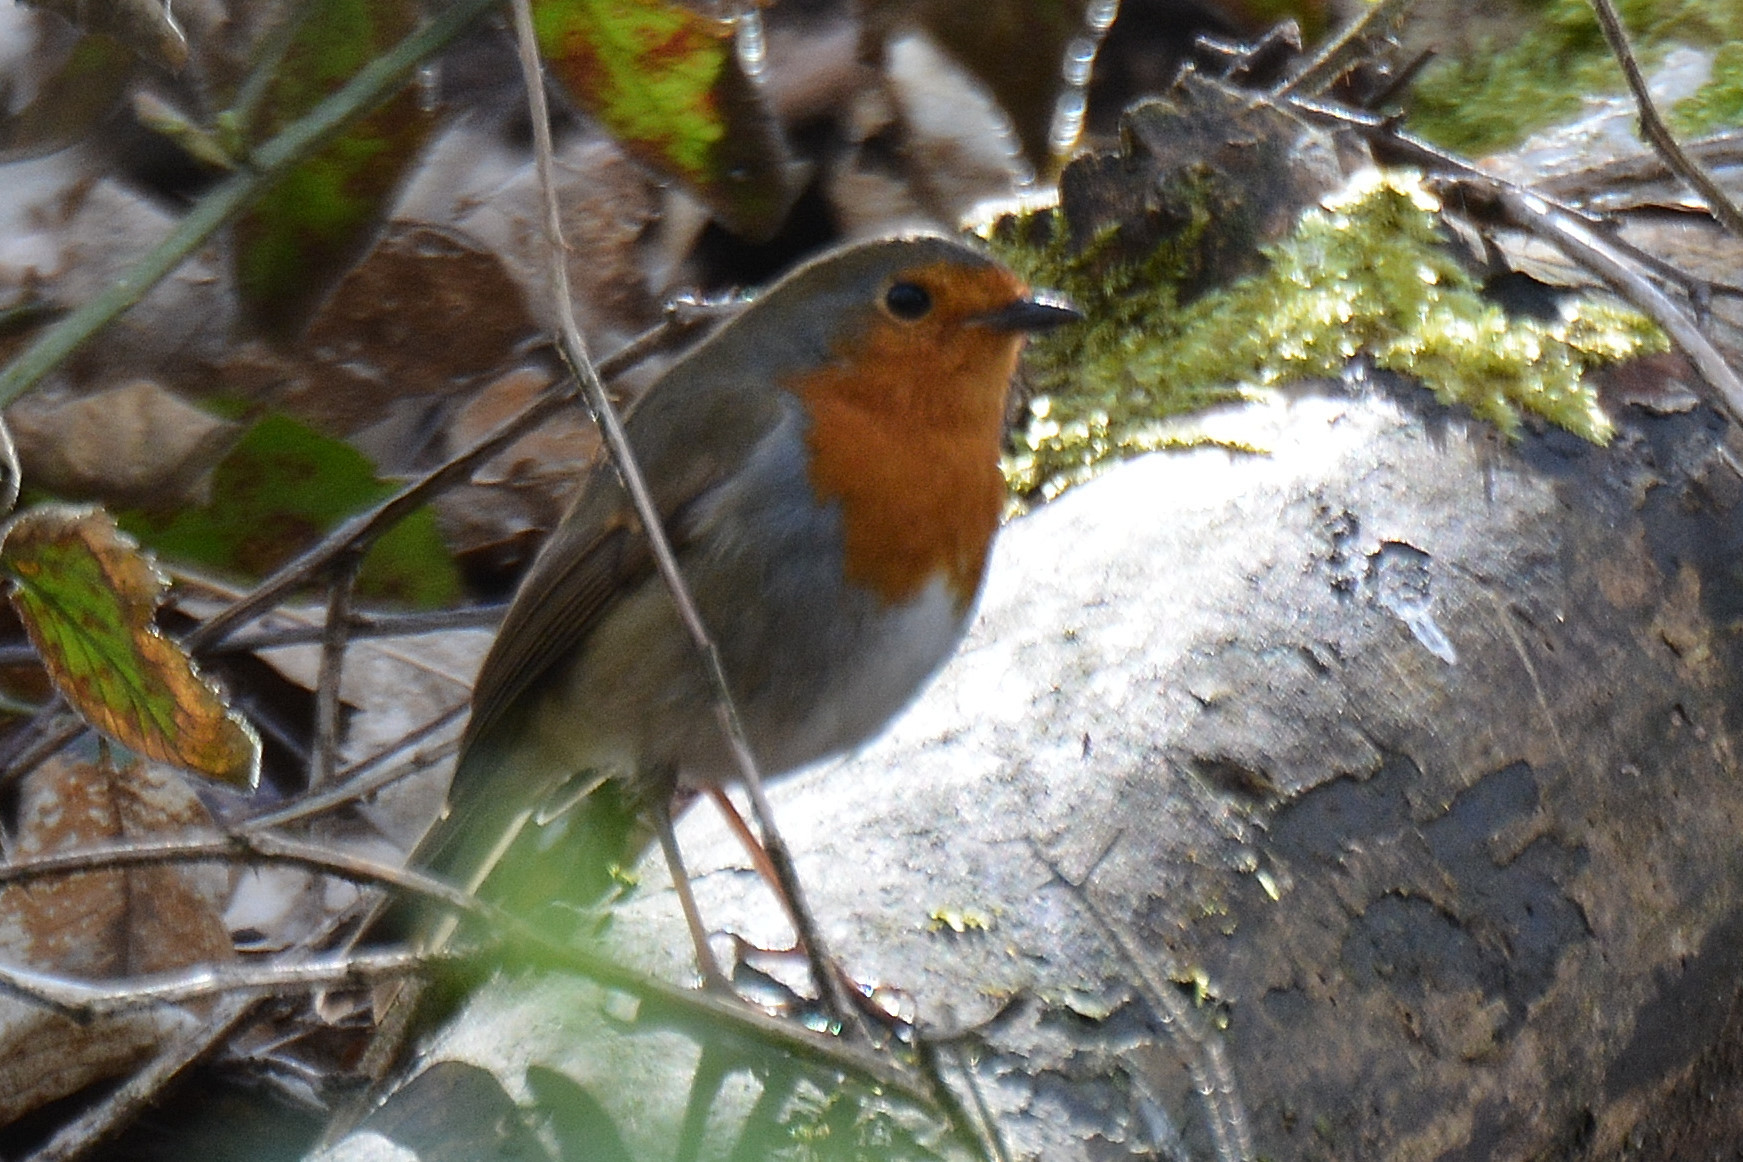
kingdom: Animalia
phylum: Chordata
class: Aves
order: Passeriformes
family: Muscicapidae
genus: Erithacus
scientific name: Erithacus rubecula
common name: European robin
